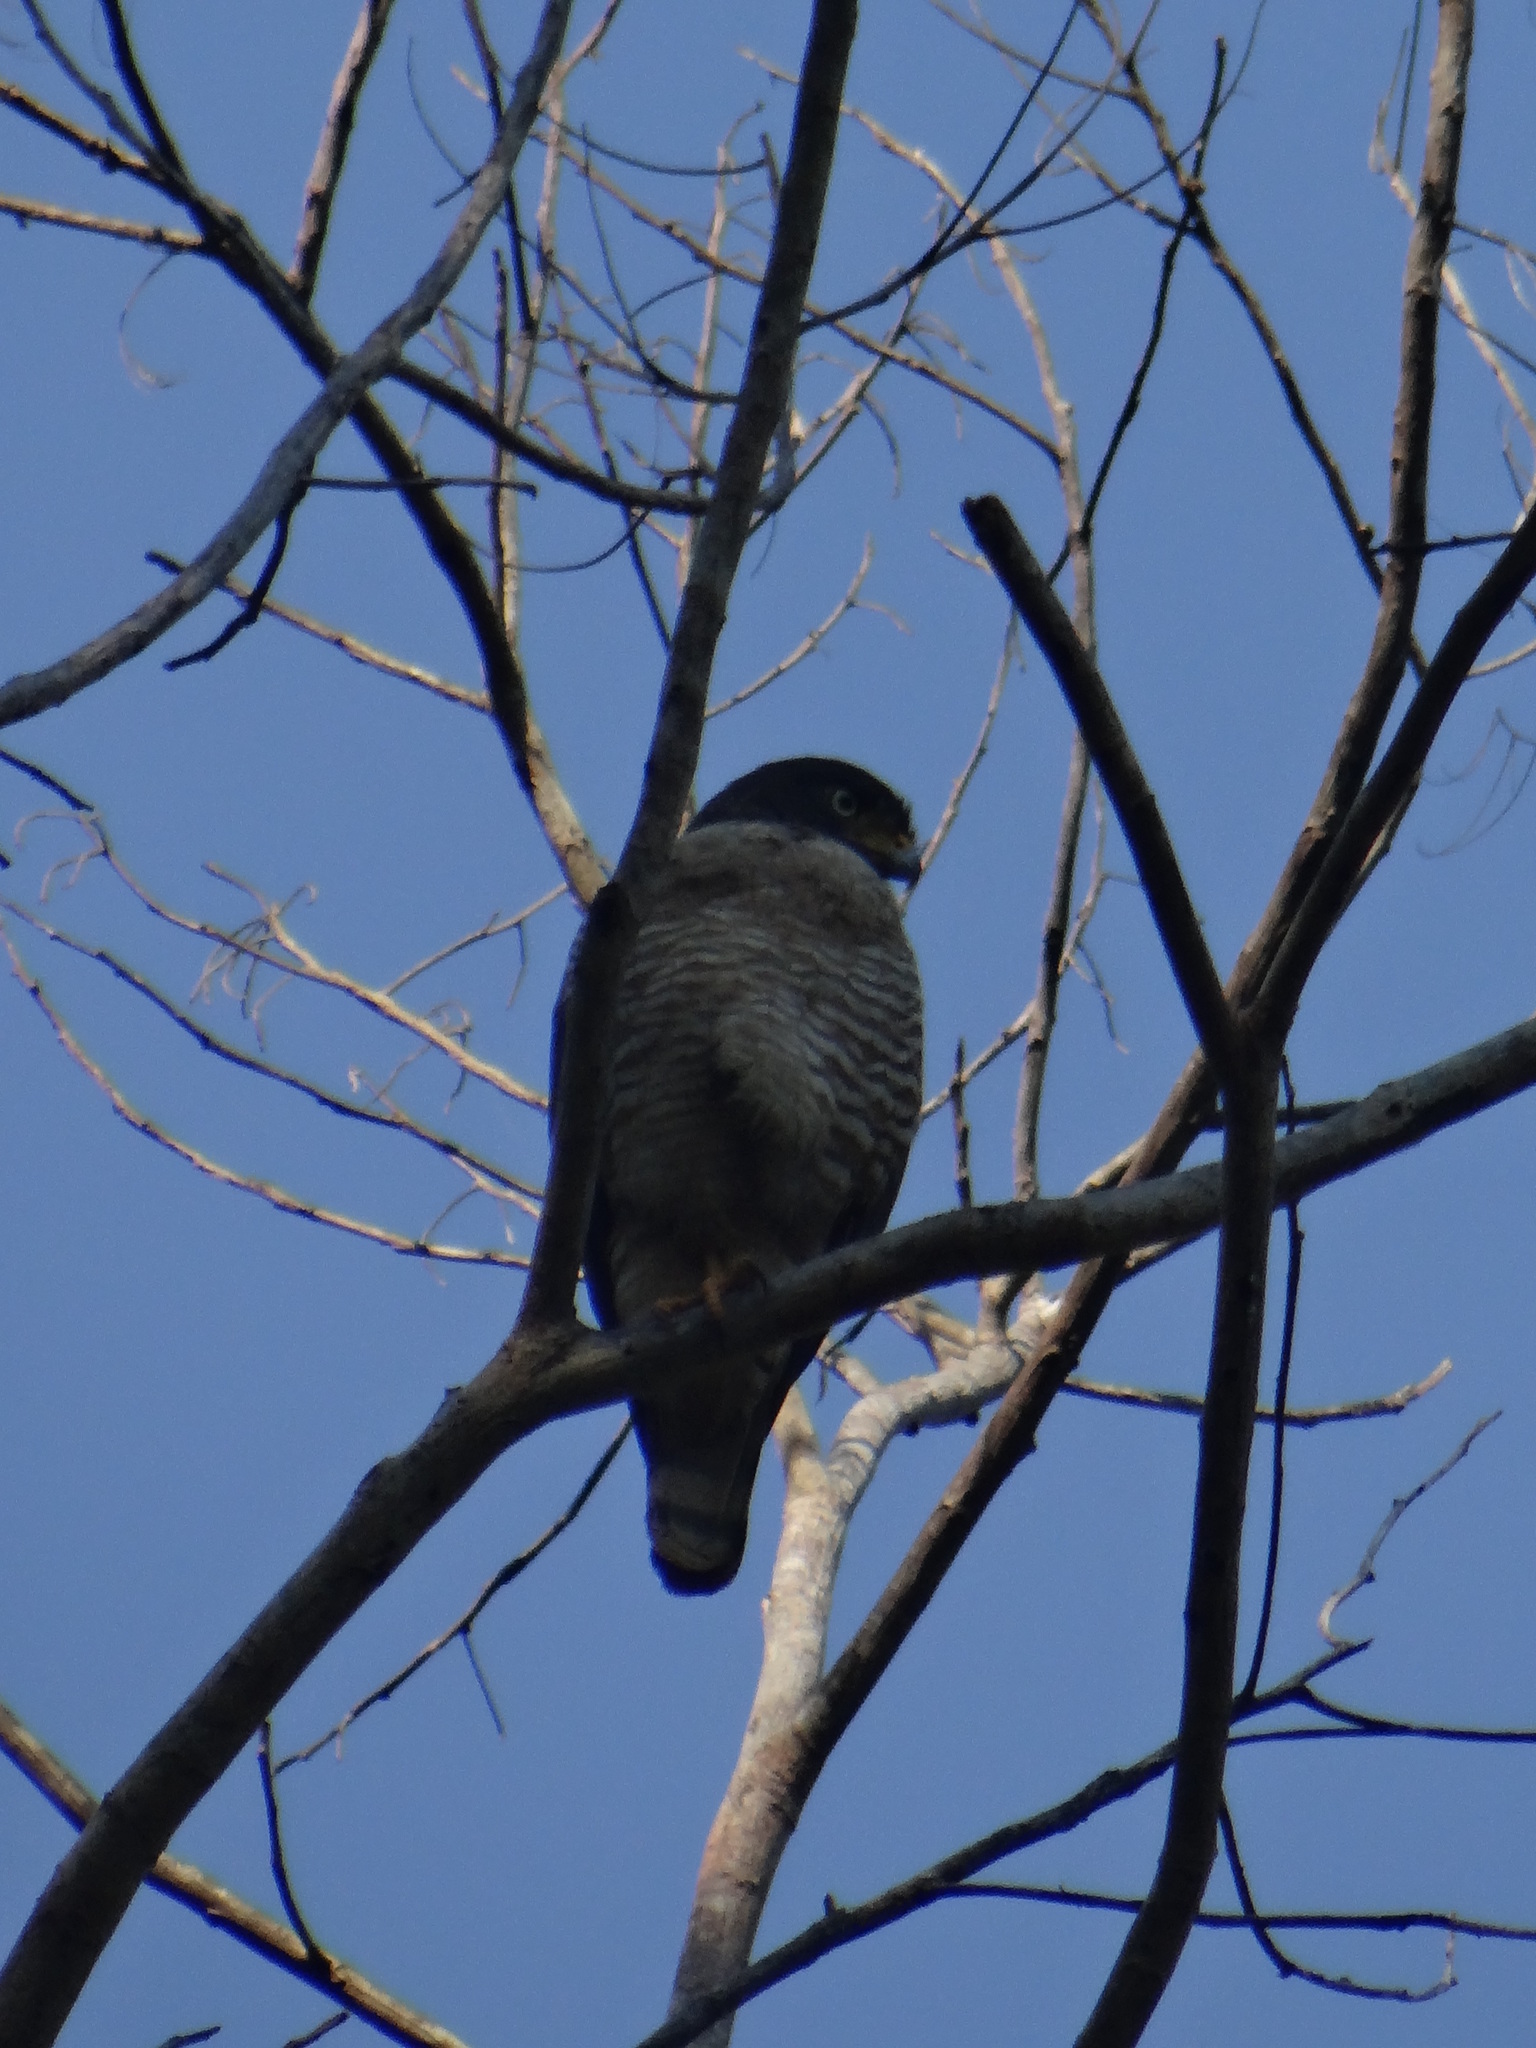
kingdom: Animalia
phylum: Chordata
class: Aves
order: Accipitriformes
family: Accipitridae
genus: Rupornis
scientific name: Rupornis magnirostris
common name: Roadside hawk
